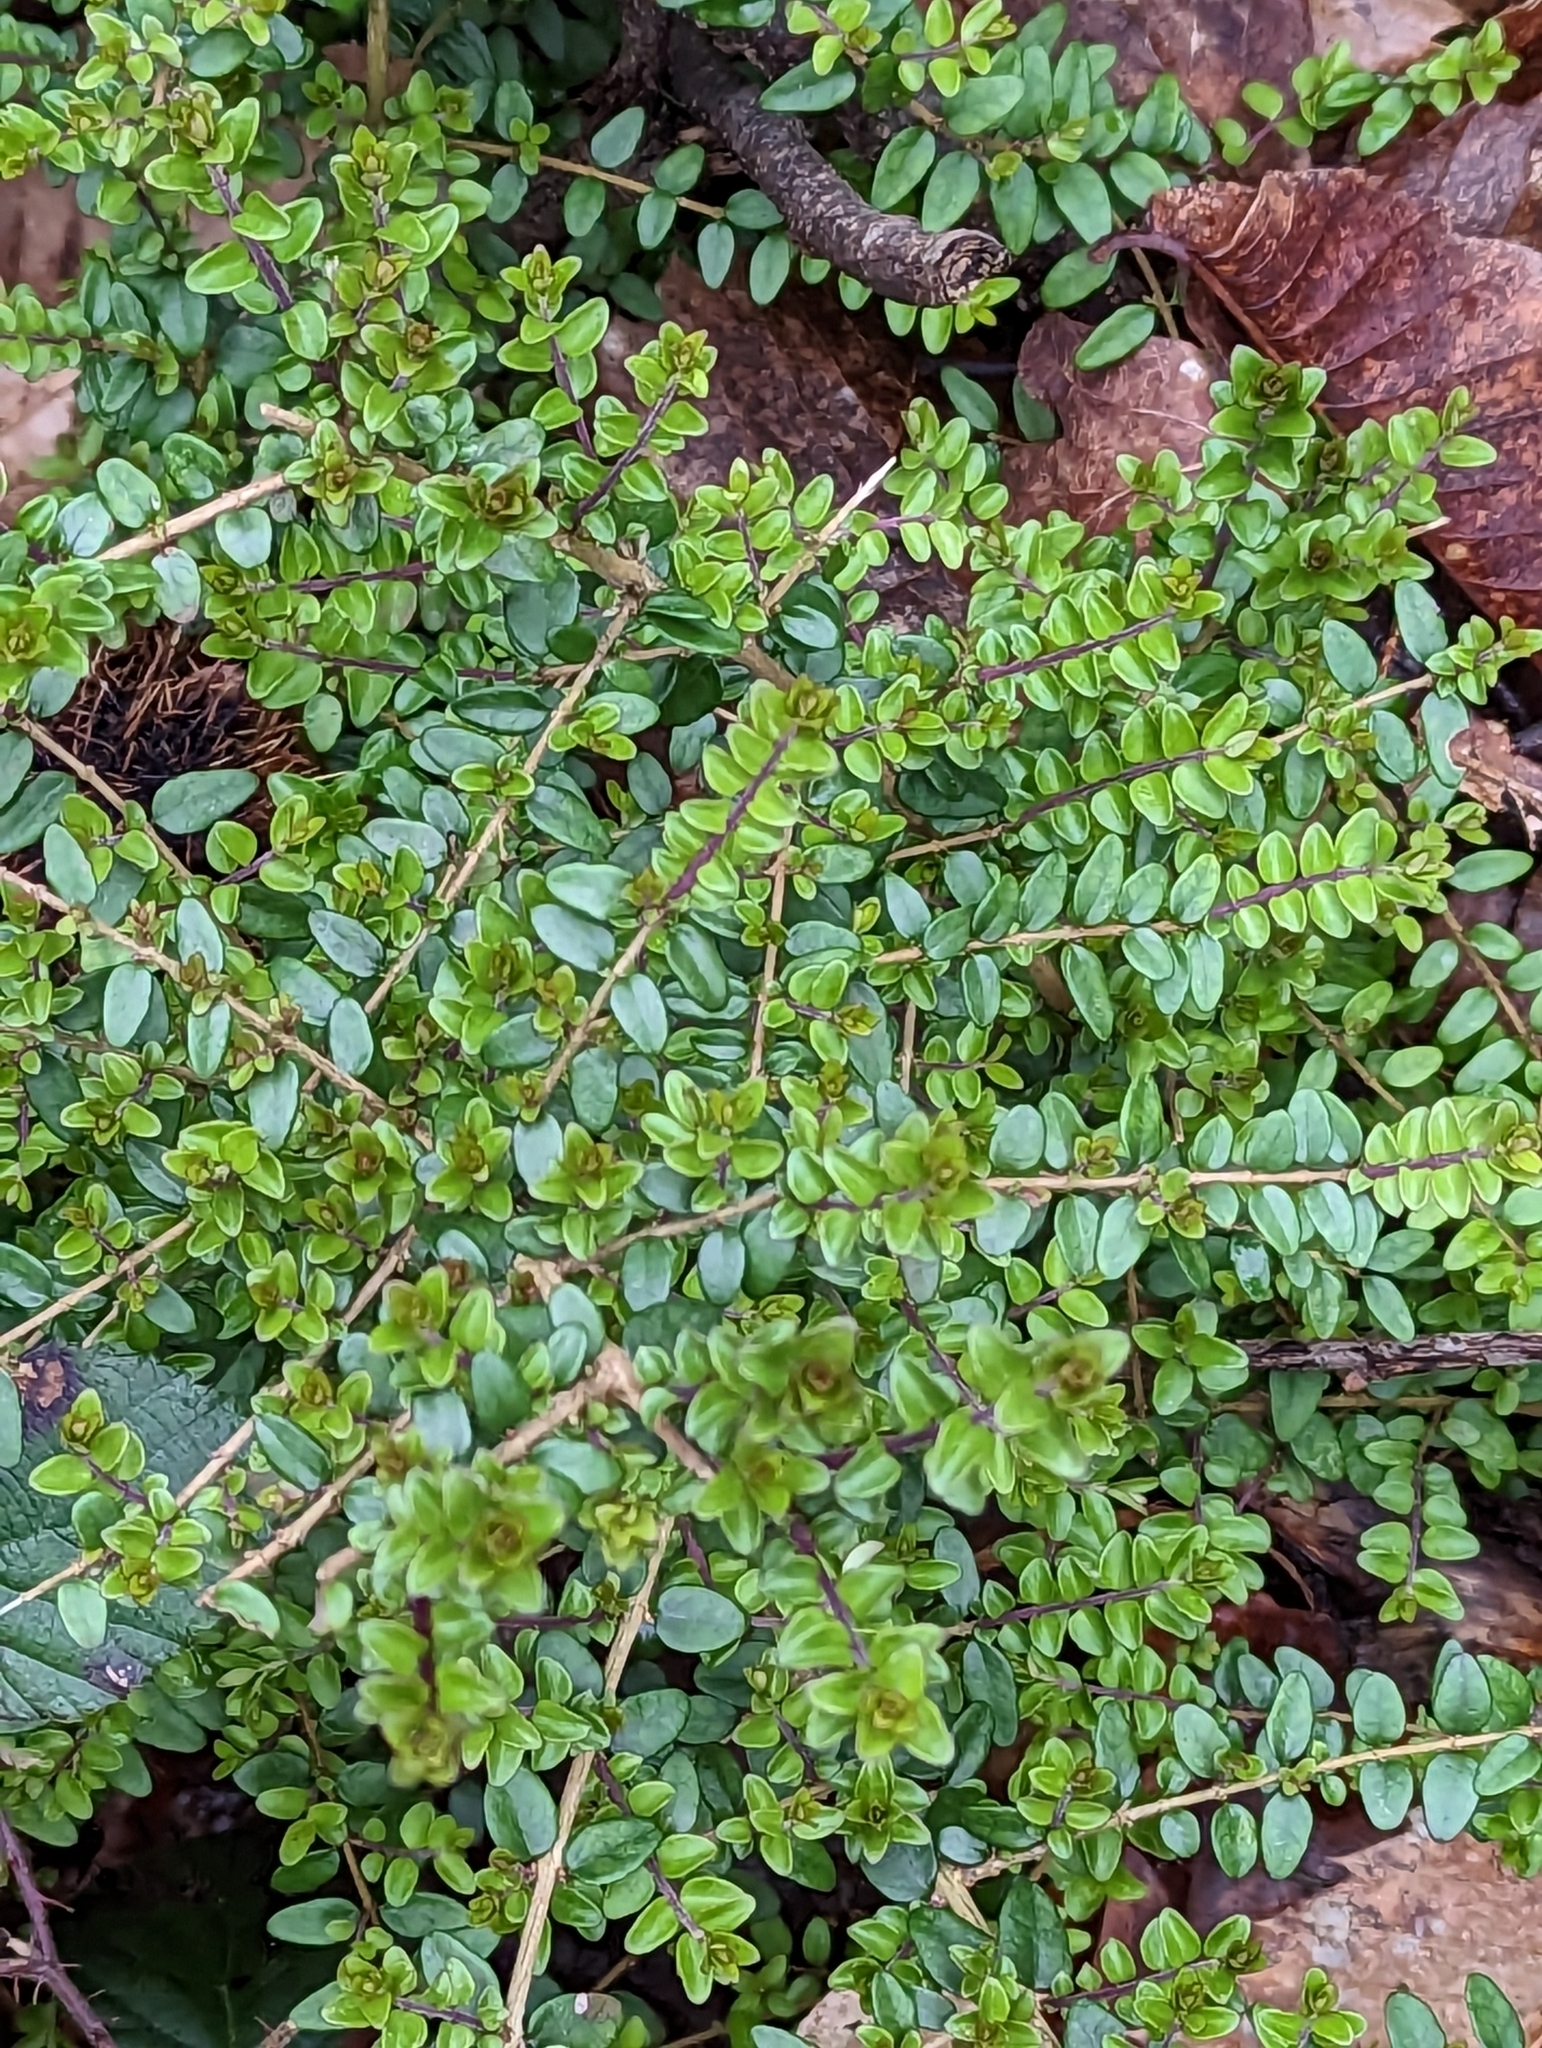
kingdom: Plantae
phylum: Tracheophyta
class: Magnoliopsida
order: Dipsacales
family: Caprifoliaceae
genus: Lonicera
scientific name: Lonicera ligustrina
